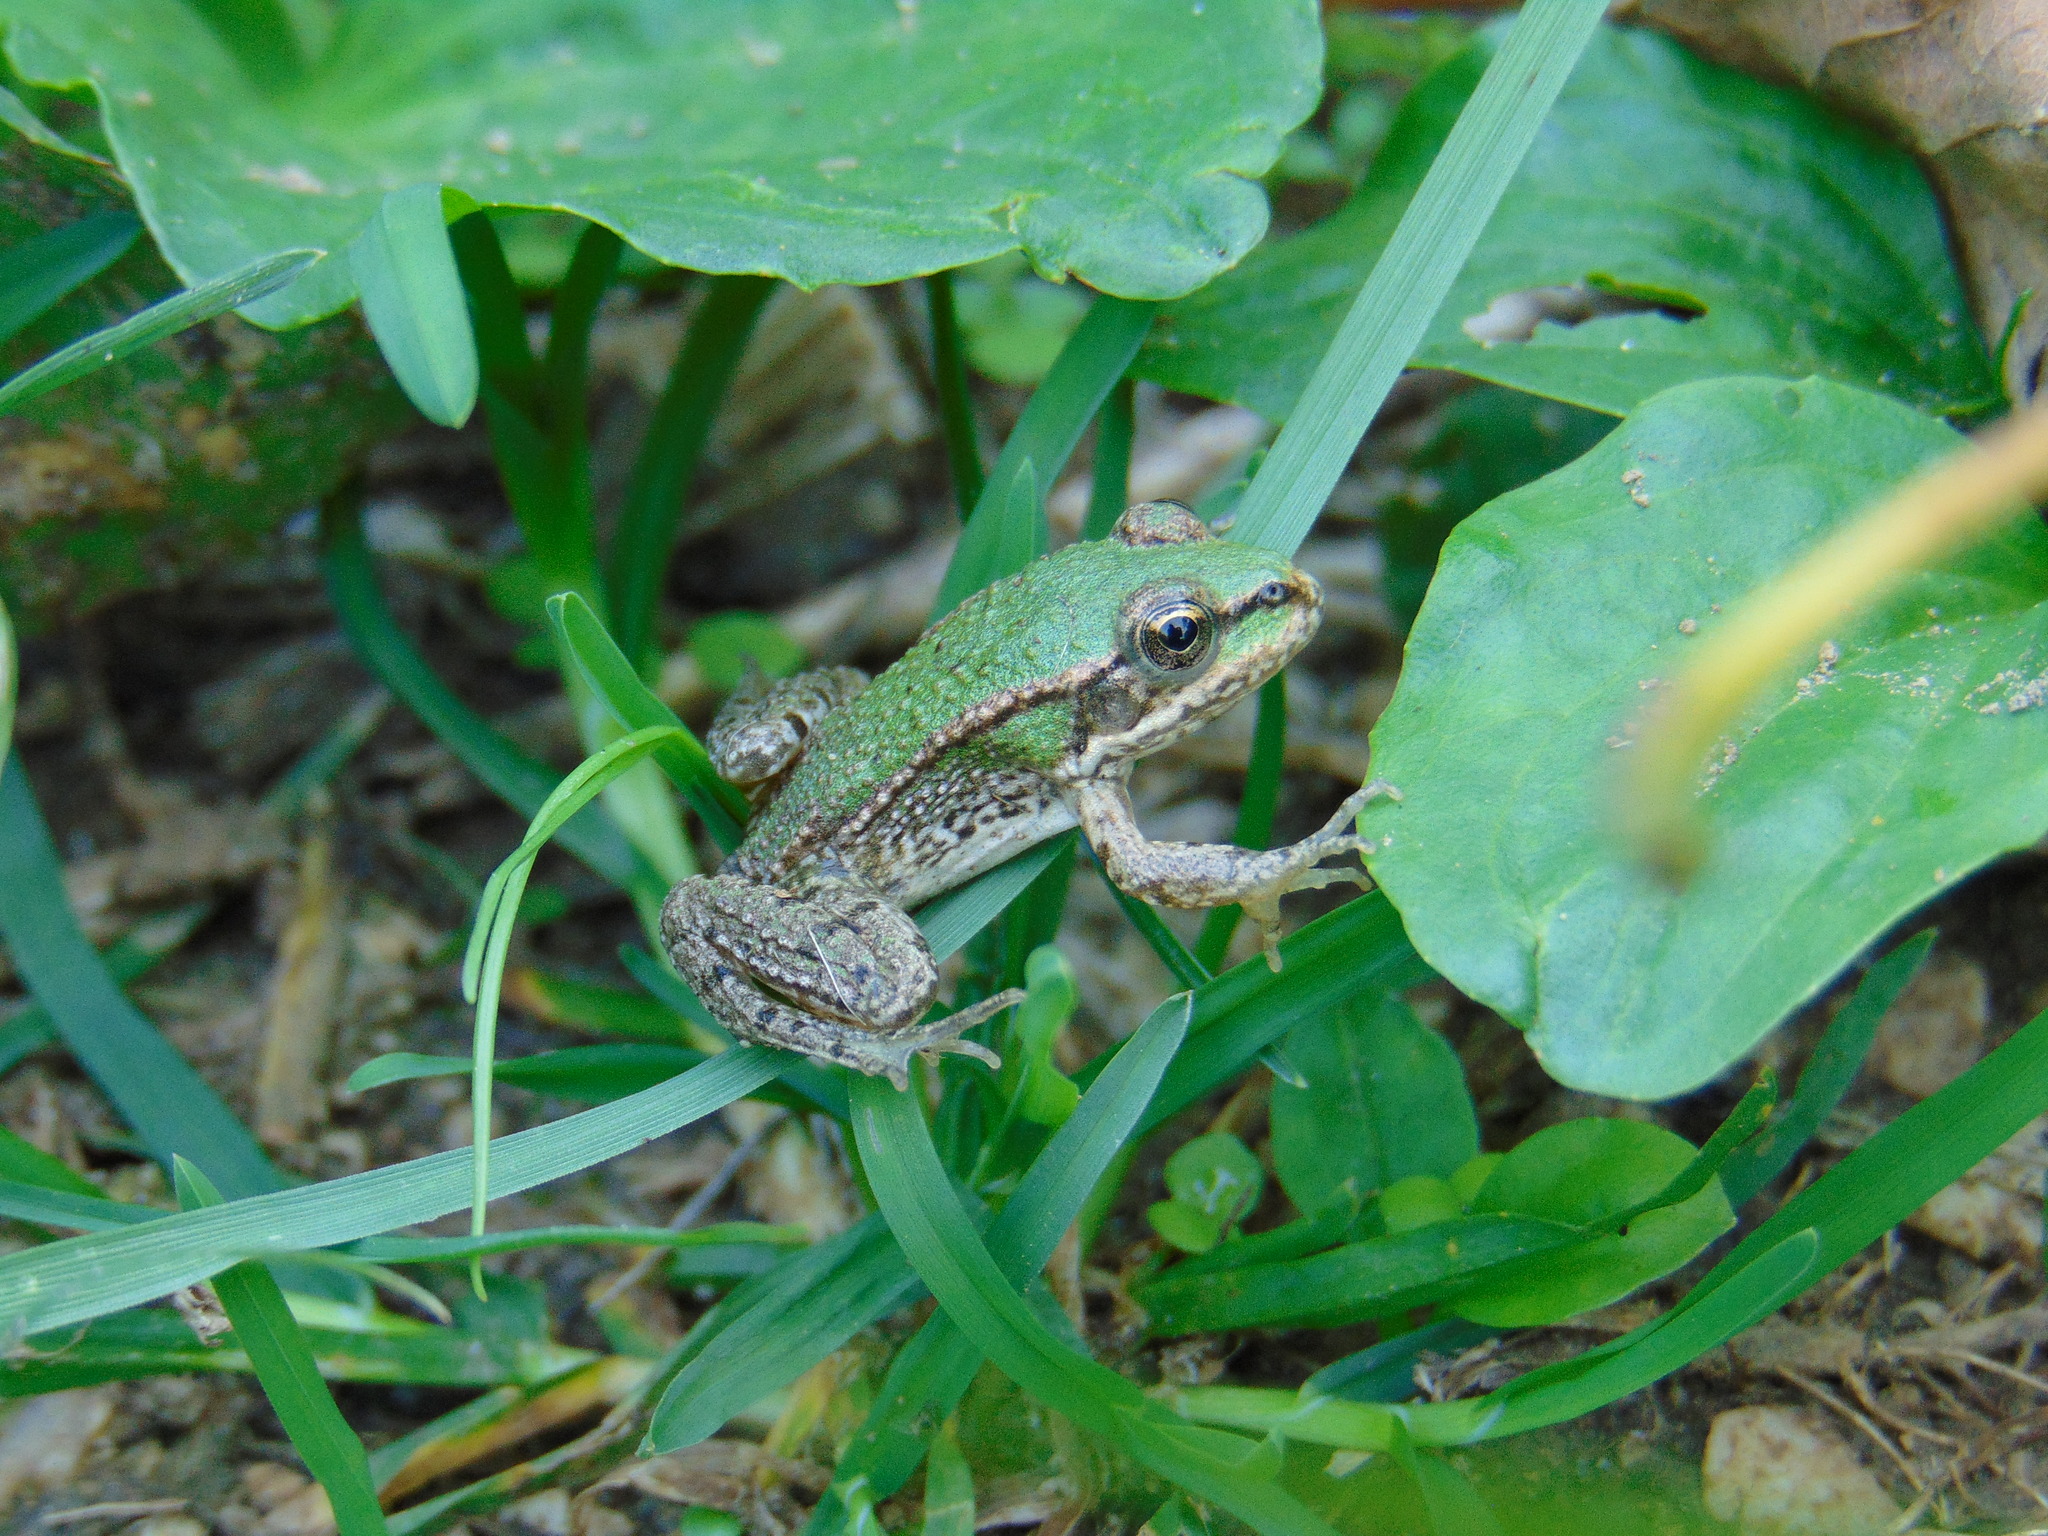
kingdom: Animalia
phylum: Chordata
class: Amphibia
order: Anura
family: Ranidae
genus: Pelophylax
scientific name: Pelophylax
